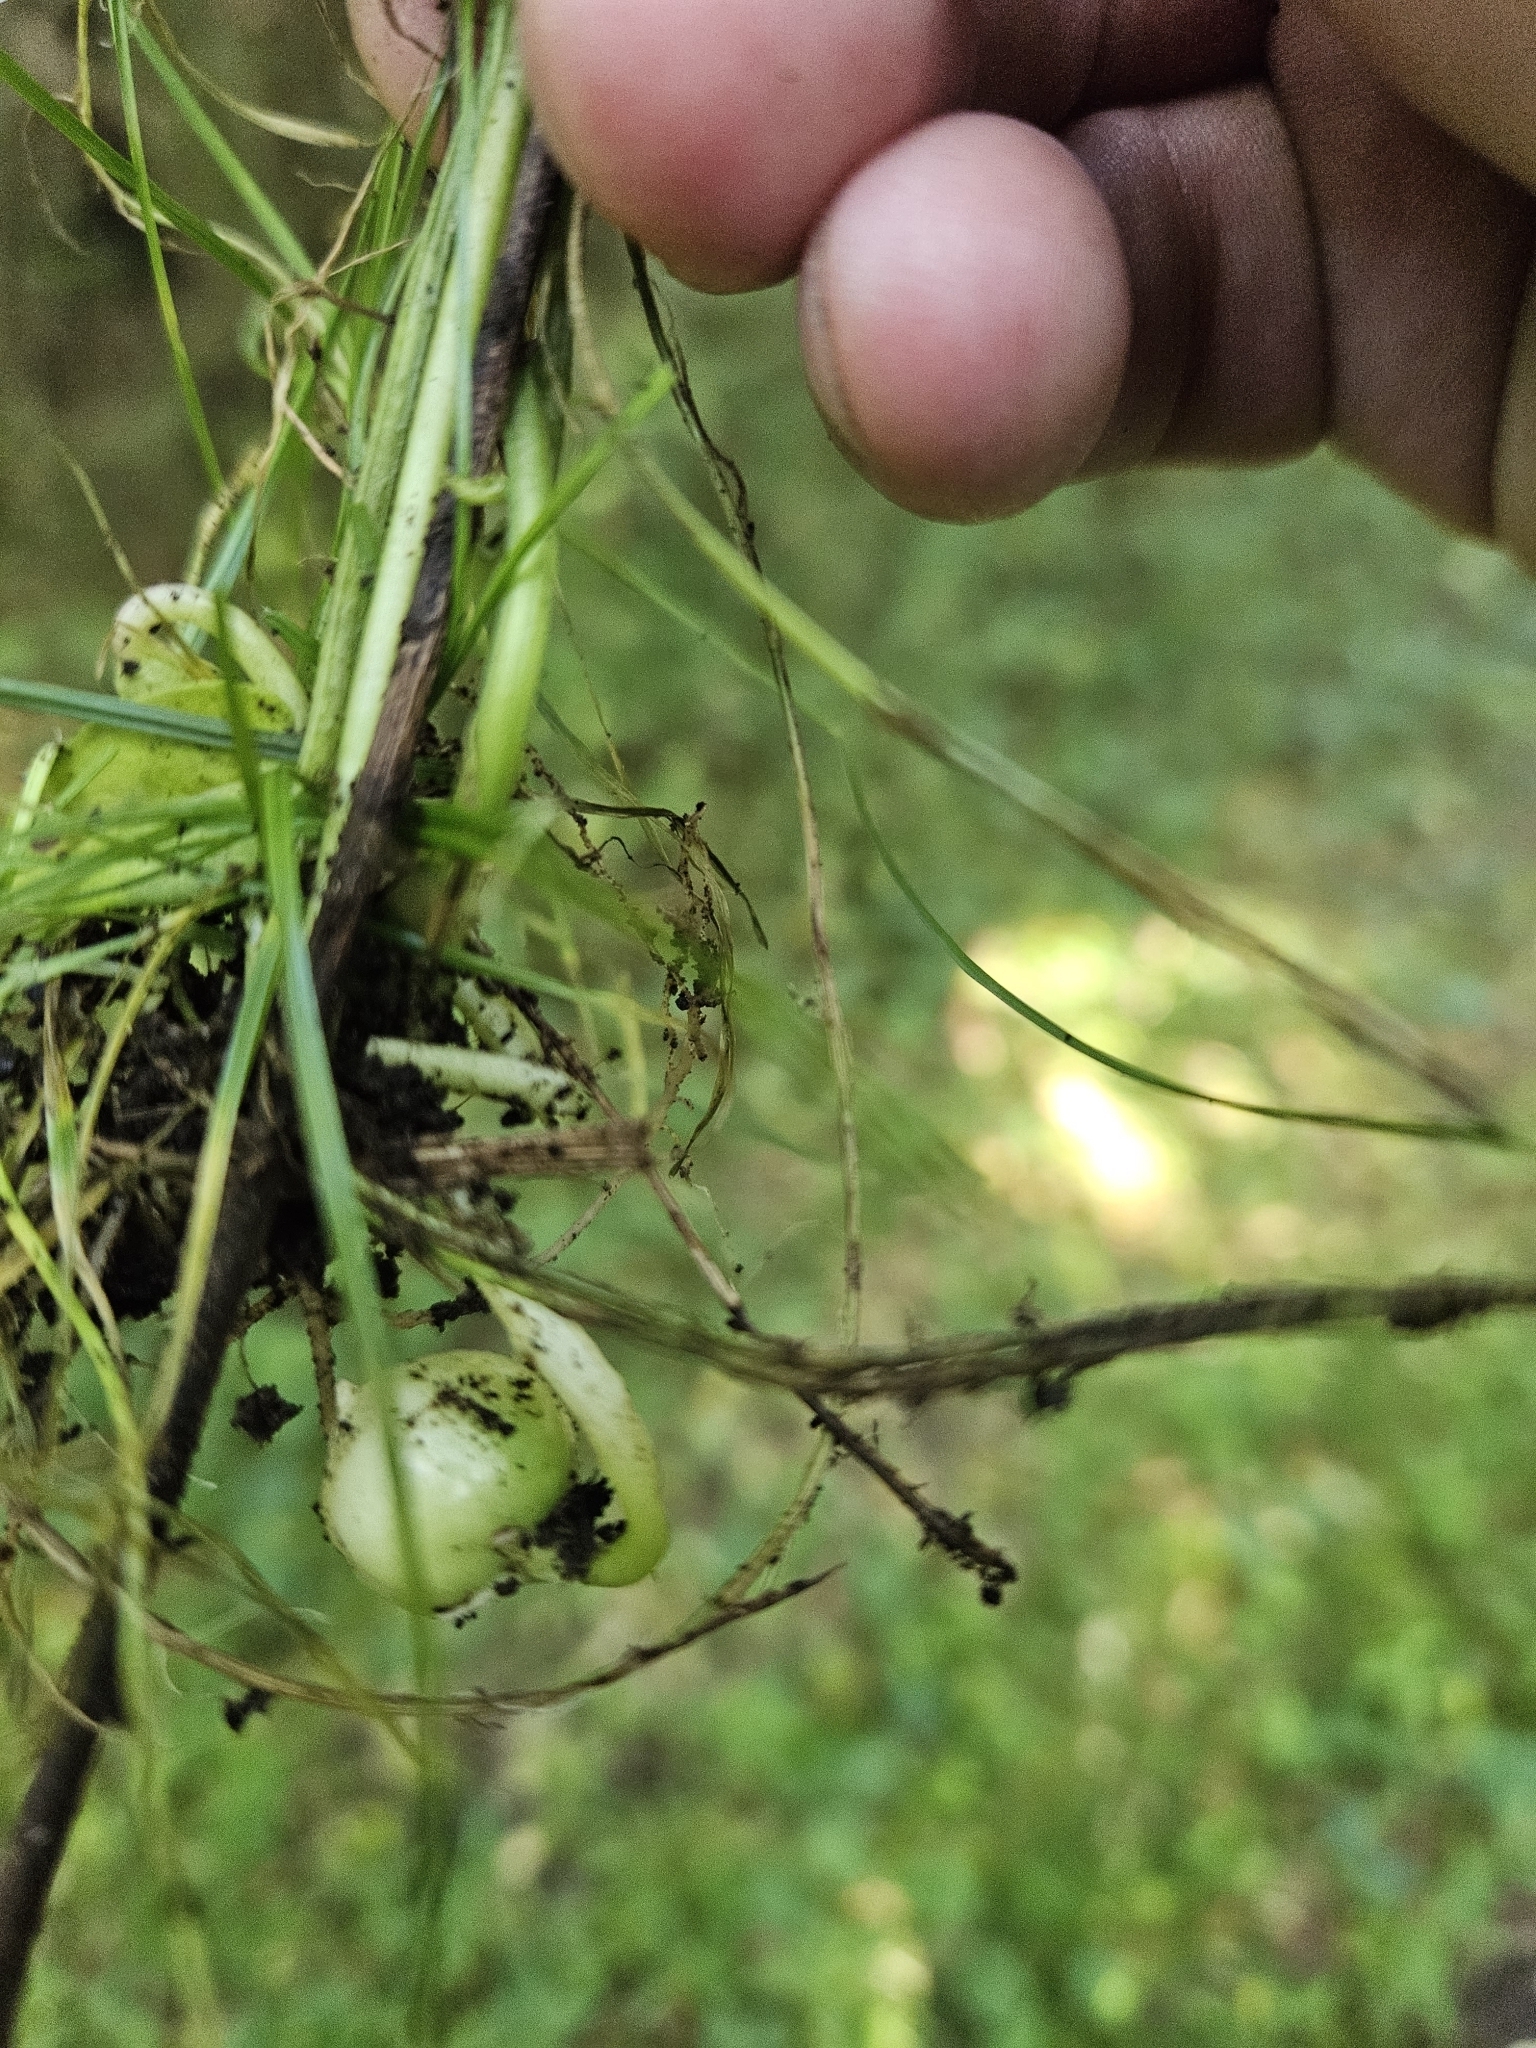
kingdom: Animalia
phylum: Arthropoda
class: Insecta
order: Diptera
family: Cecidomyiidae
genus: Dasineura
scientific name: Dasineura semenivora
